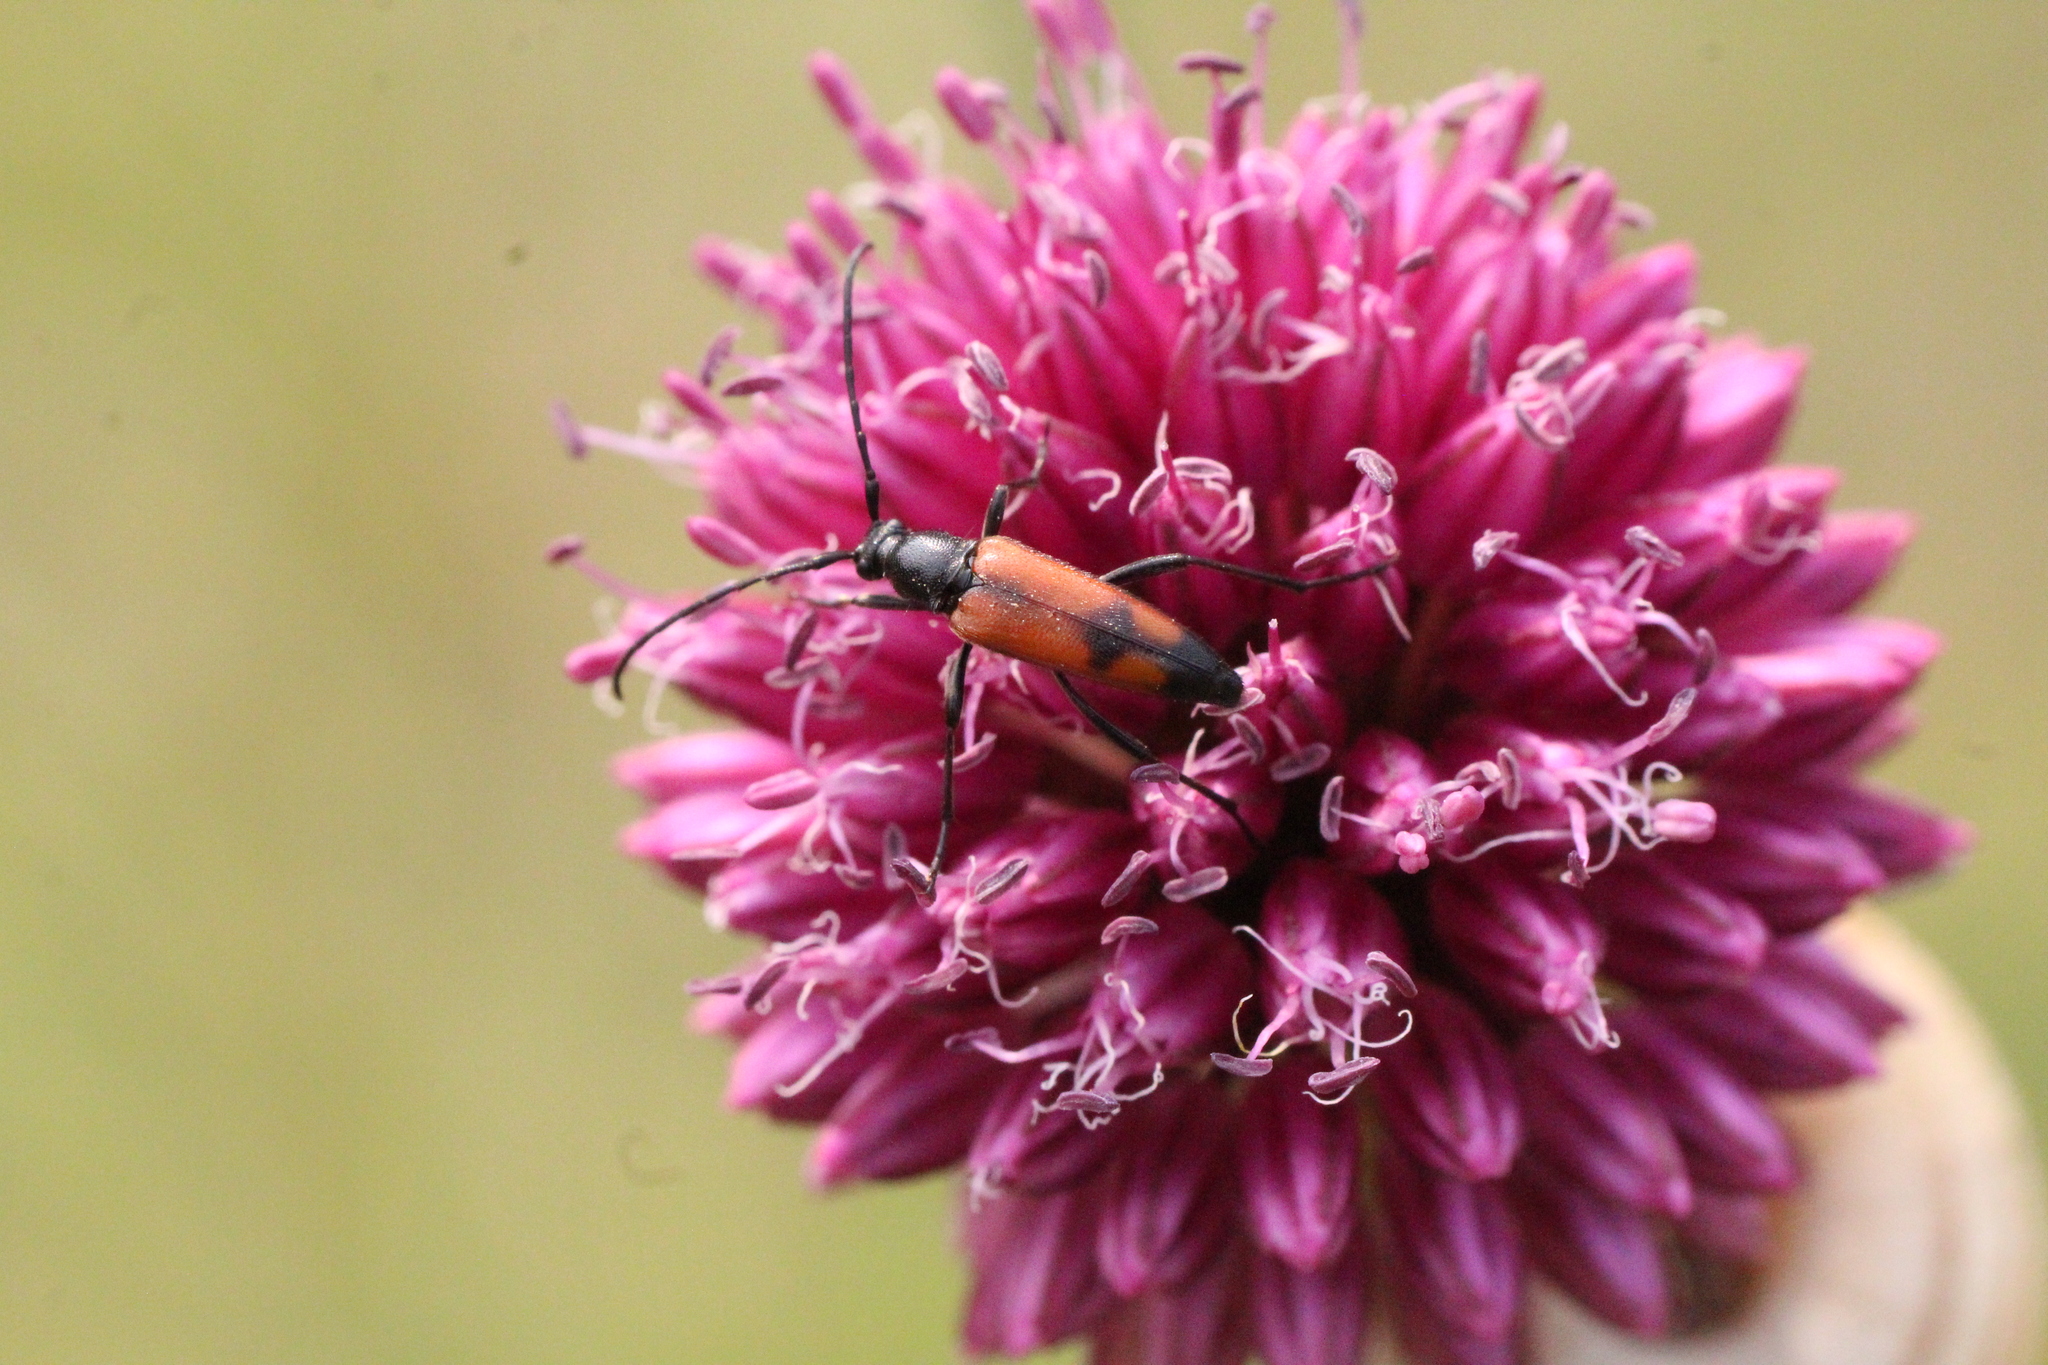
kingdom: Animalia
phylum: Arthropoda
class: Insecta
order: Coleoptera
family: Cerambycidae
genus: Stenurella
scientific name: Stenurella bifasciata
